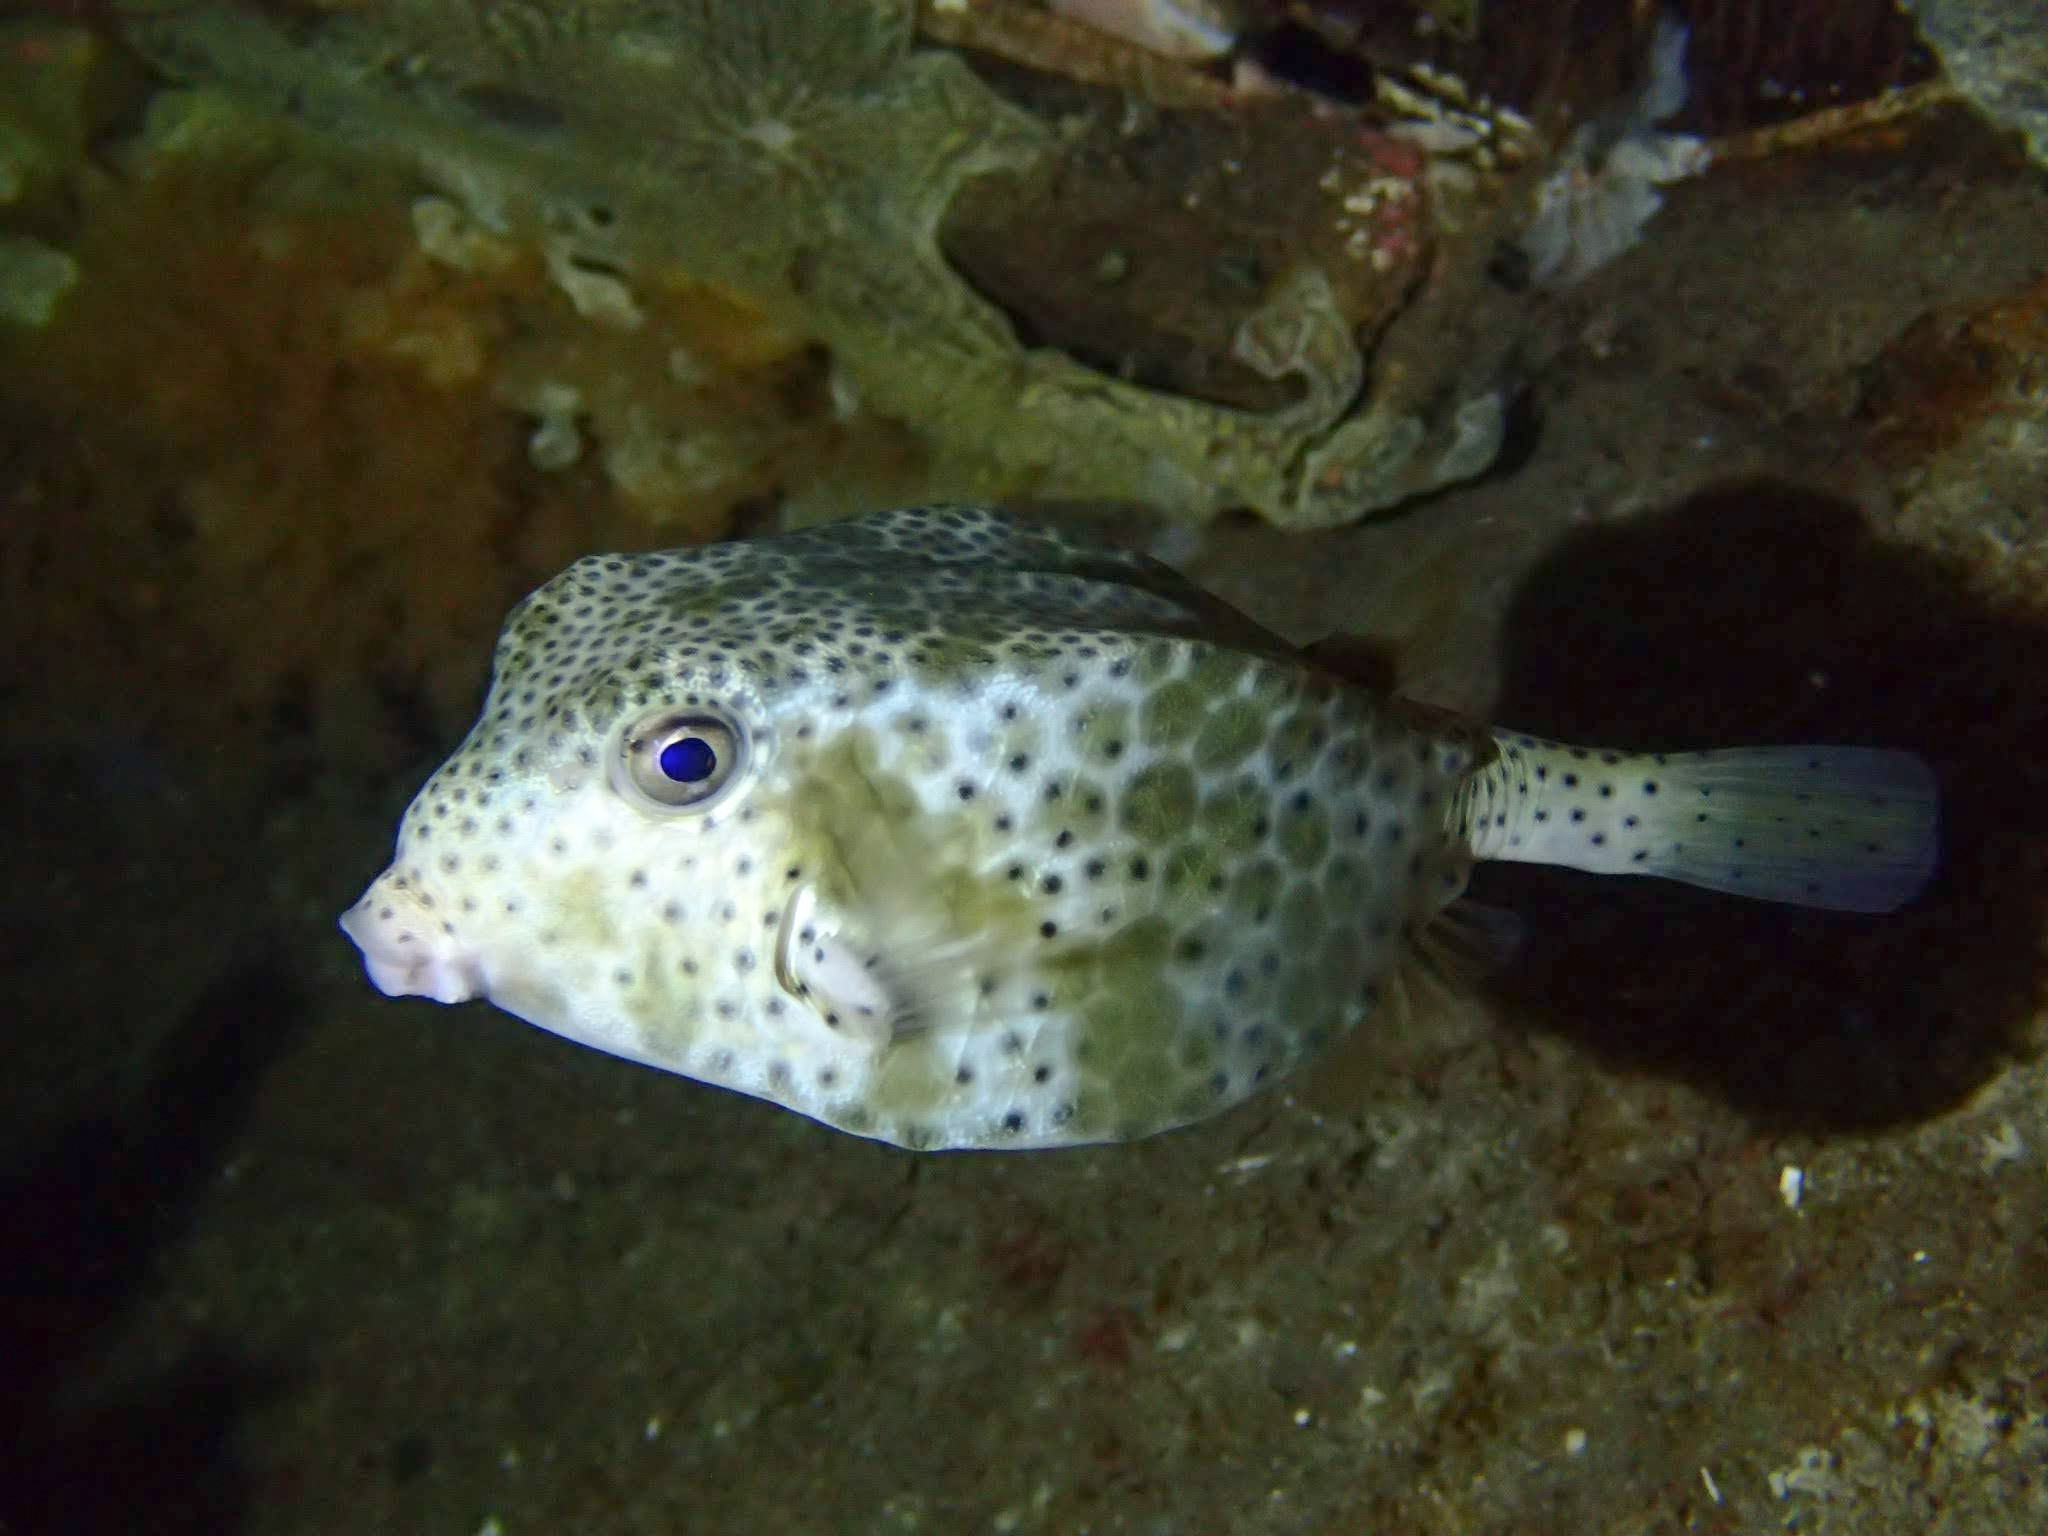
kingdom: Animalia
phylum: Chordata
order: Tetraodontiformes
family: Ostraciidae
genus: Ostracion
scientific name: Ostracion rhinorhynchos
